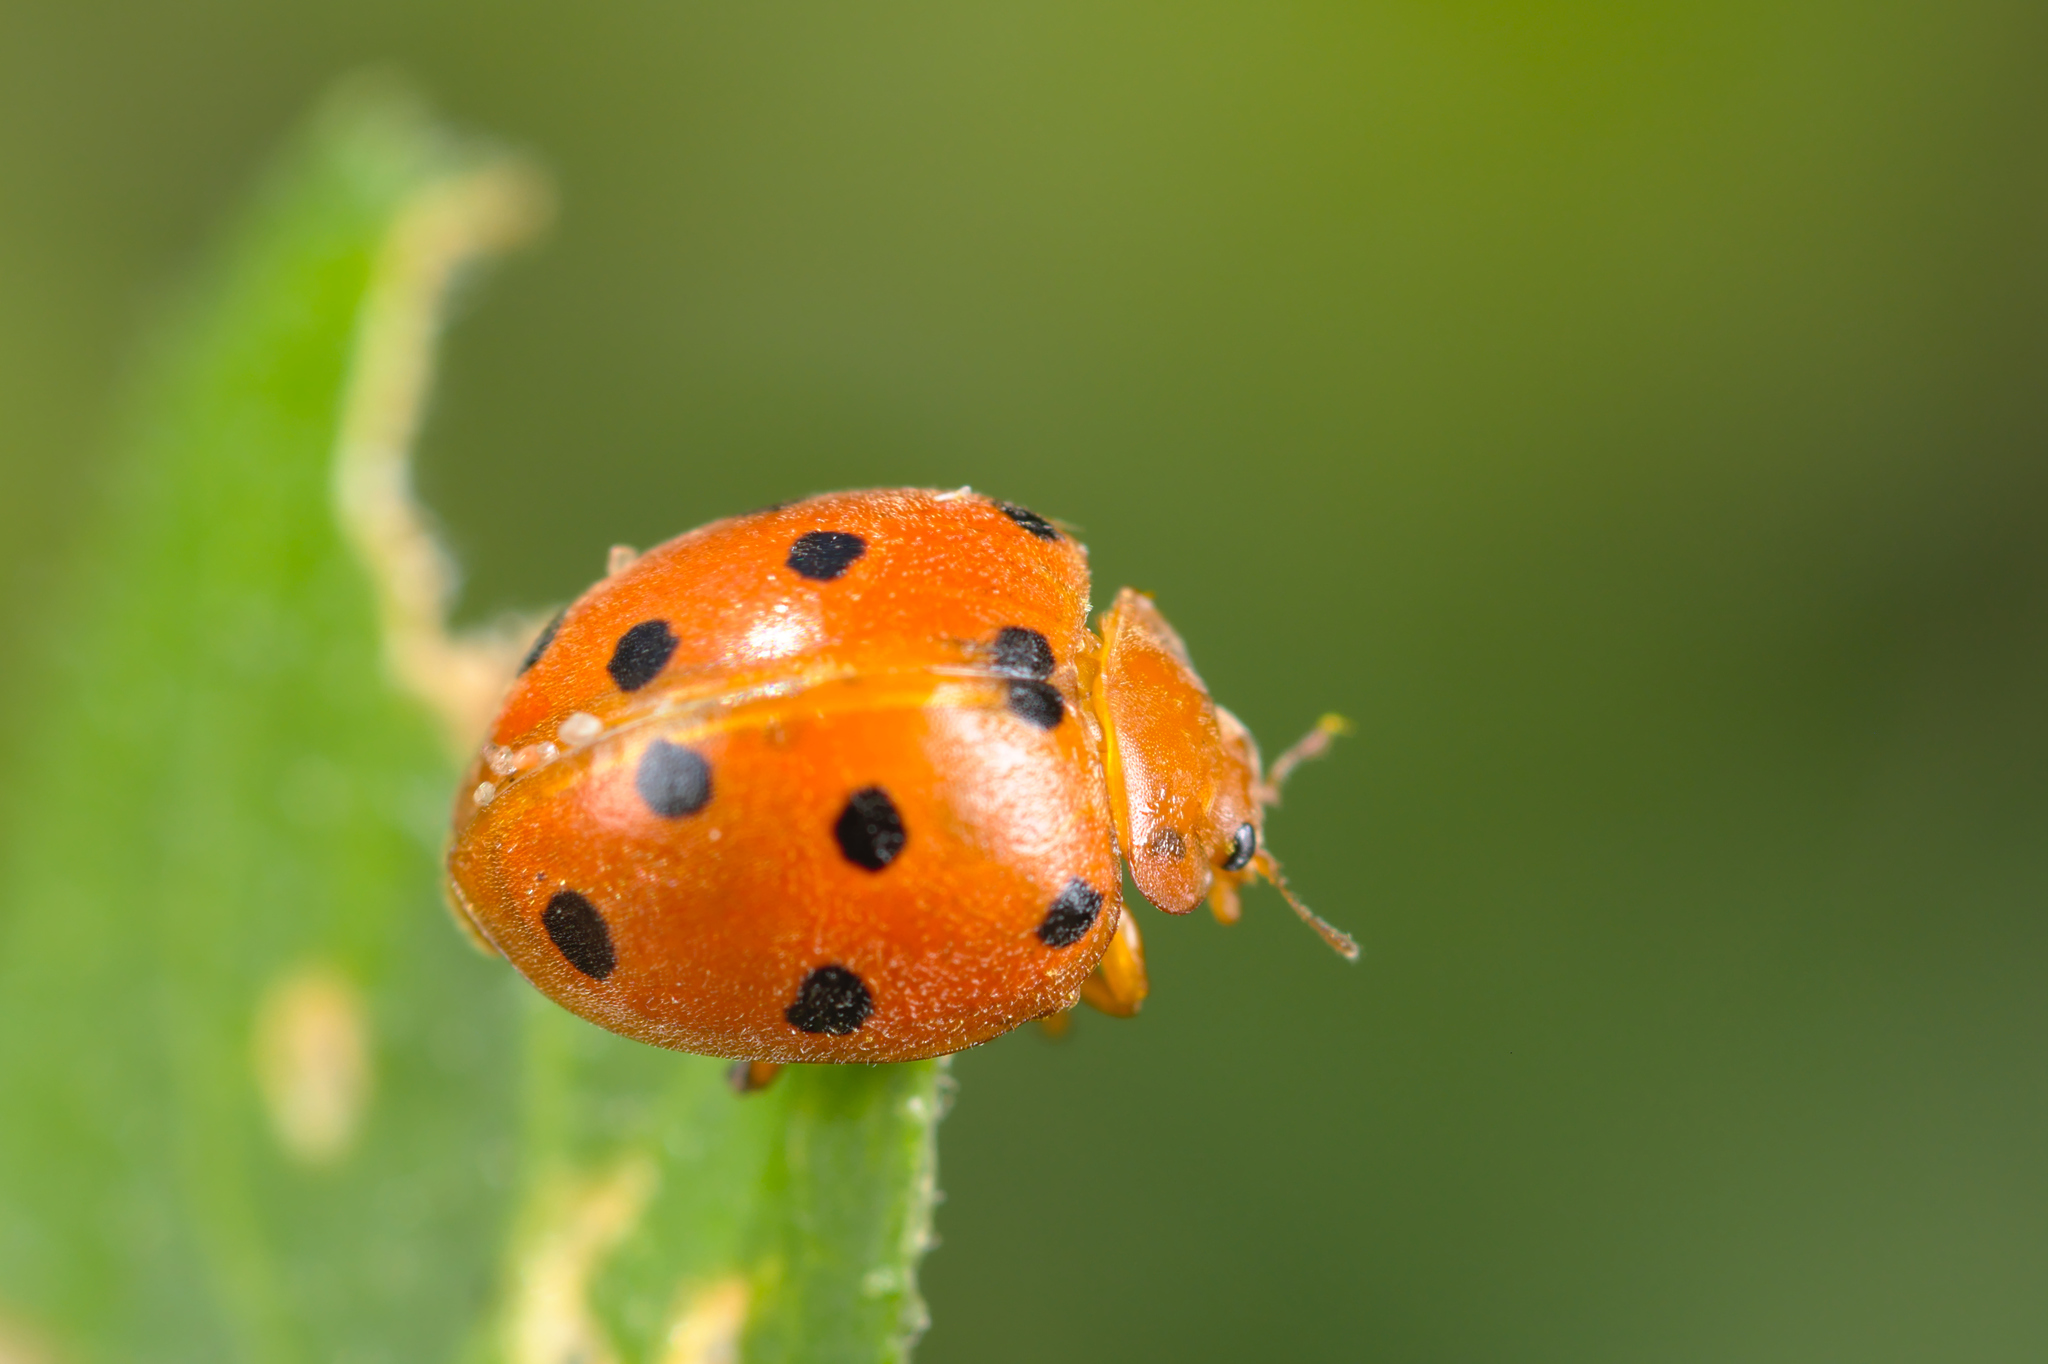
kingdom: Animalia
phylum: Arthropoda
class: Insecta
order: Coleoptera
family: Coccinellidae
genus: Henosepilachna
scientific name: Henosepilachna argus
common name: Bryony ladybird
